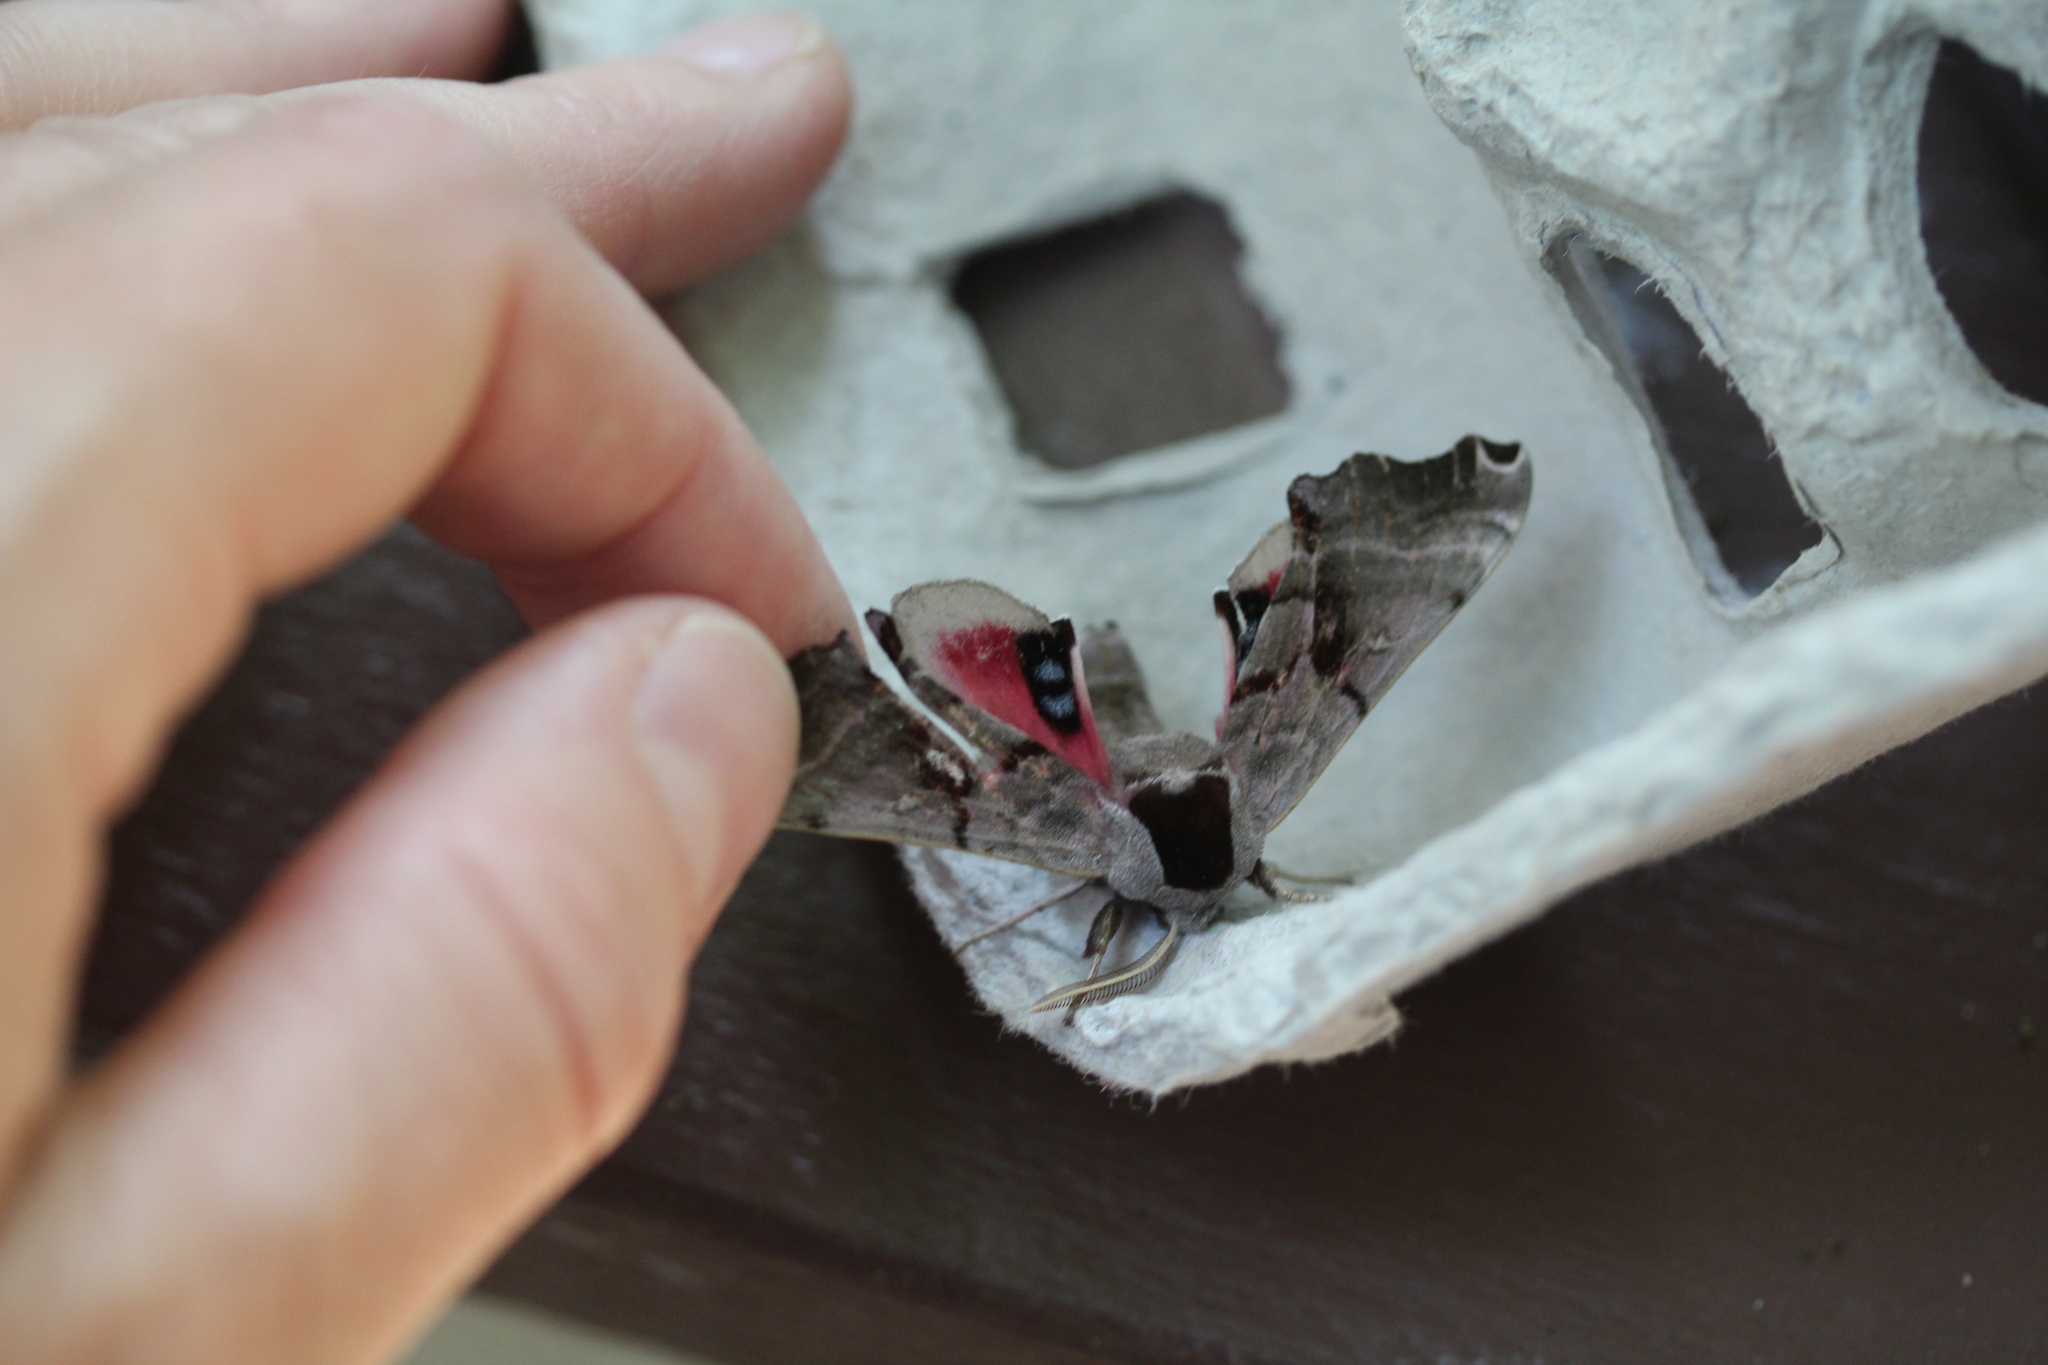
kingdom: Animalia
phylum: Arthropoda
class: Insecta
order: Lepidoptera
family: Sphingidae
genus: Smerinthus
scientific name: Smerinthus jamaicensis
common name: Twin spotted sphinx
